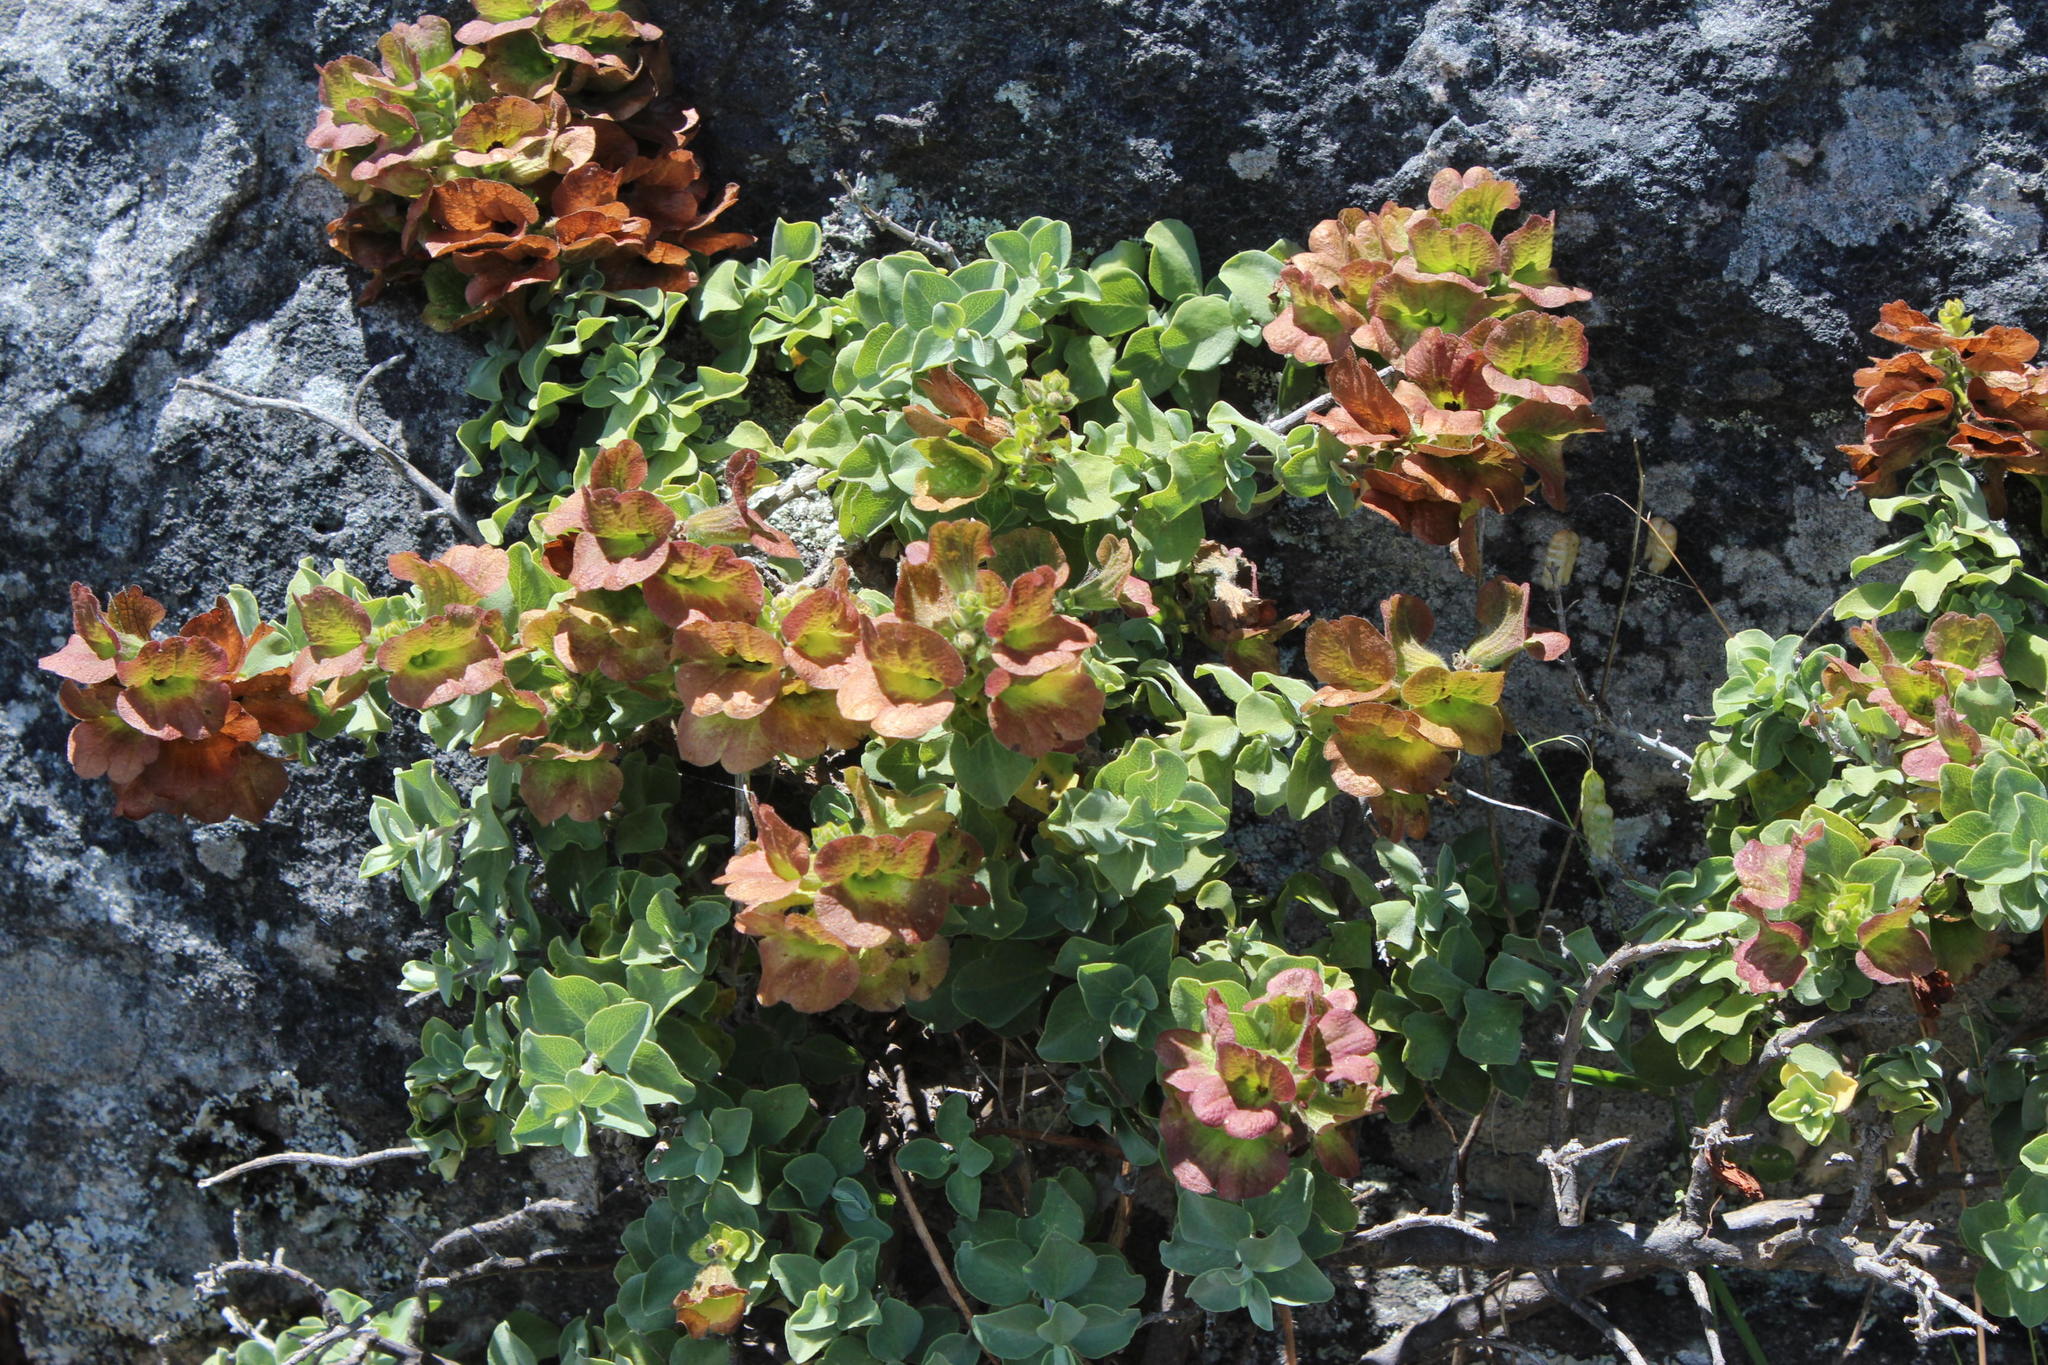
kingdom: Plantae
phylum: Tracheophyta
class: Magnoliopsida
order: Lamiales
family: Lamiaceae
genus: Salvia
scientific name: Salvia aurea
